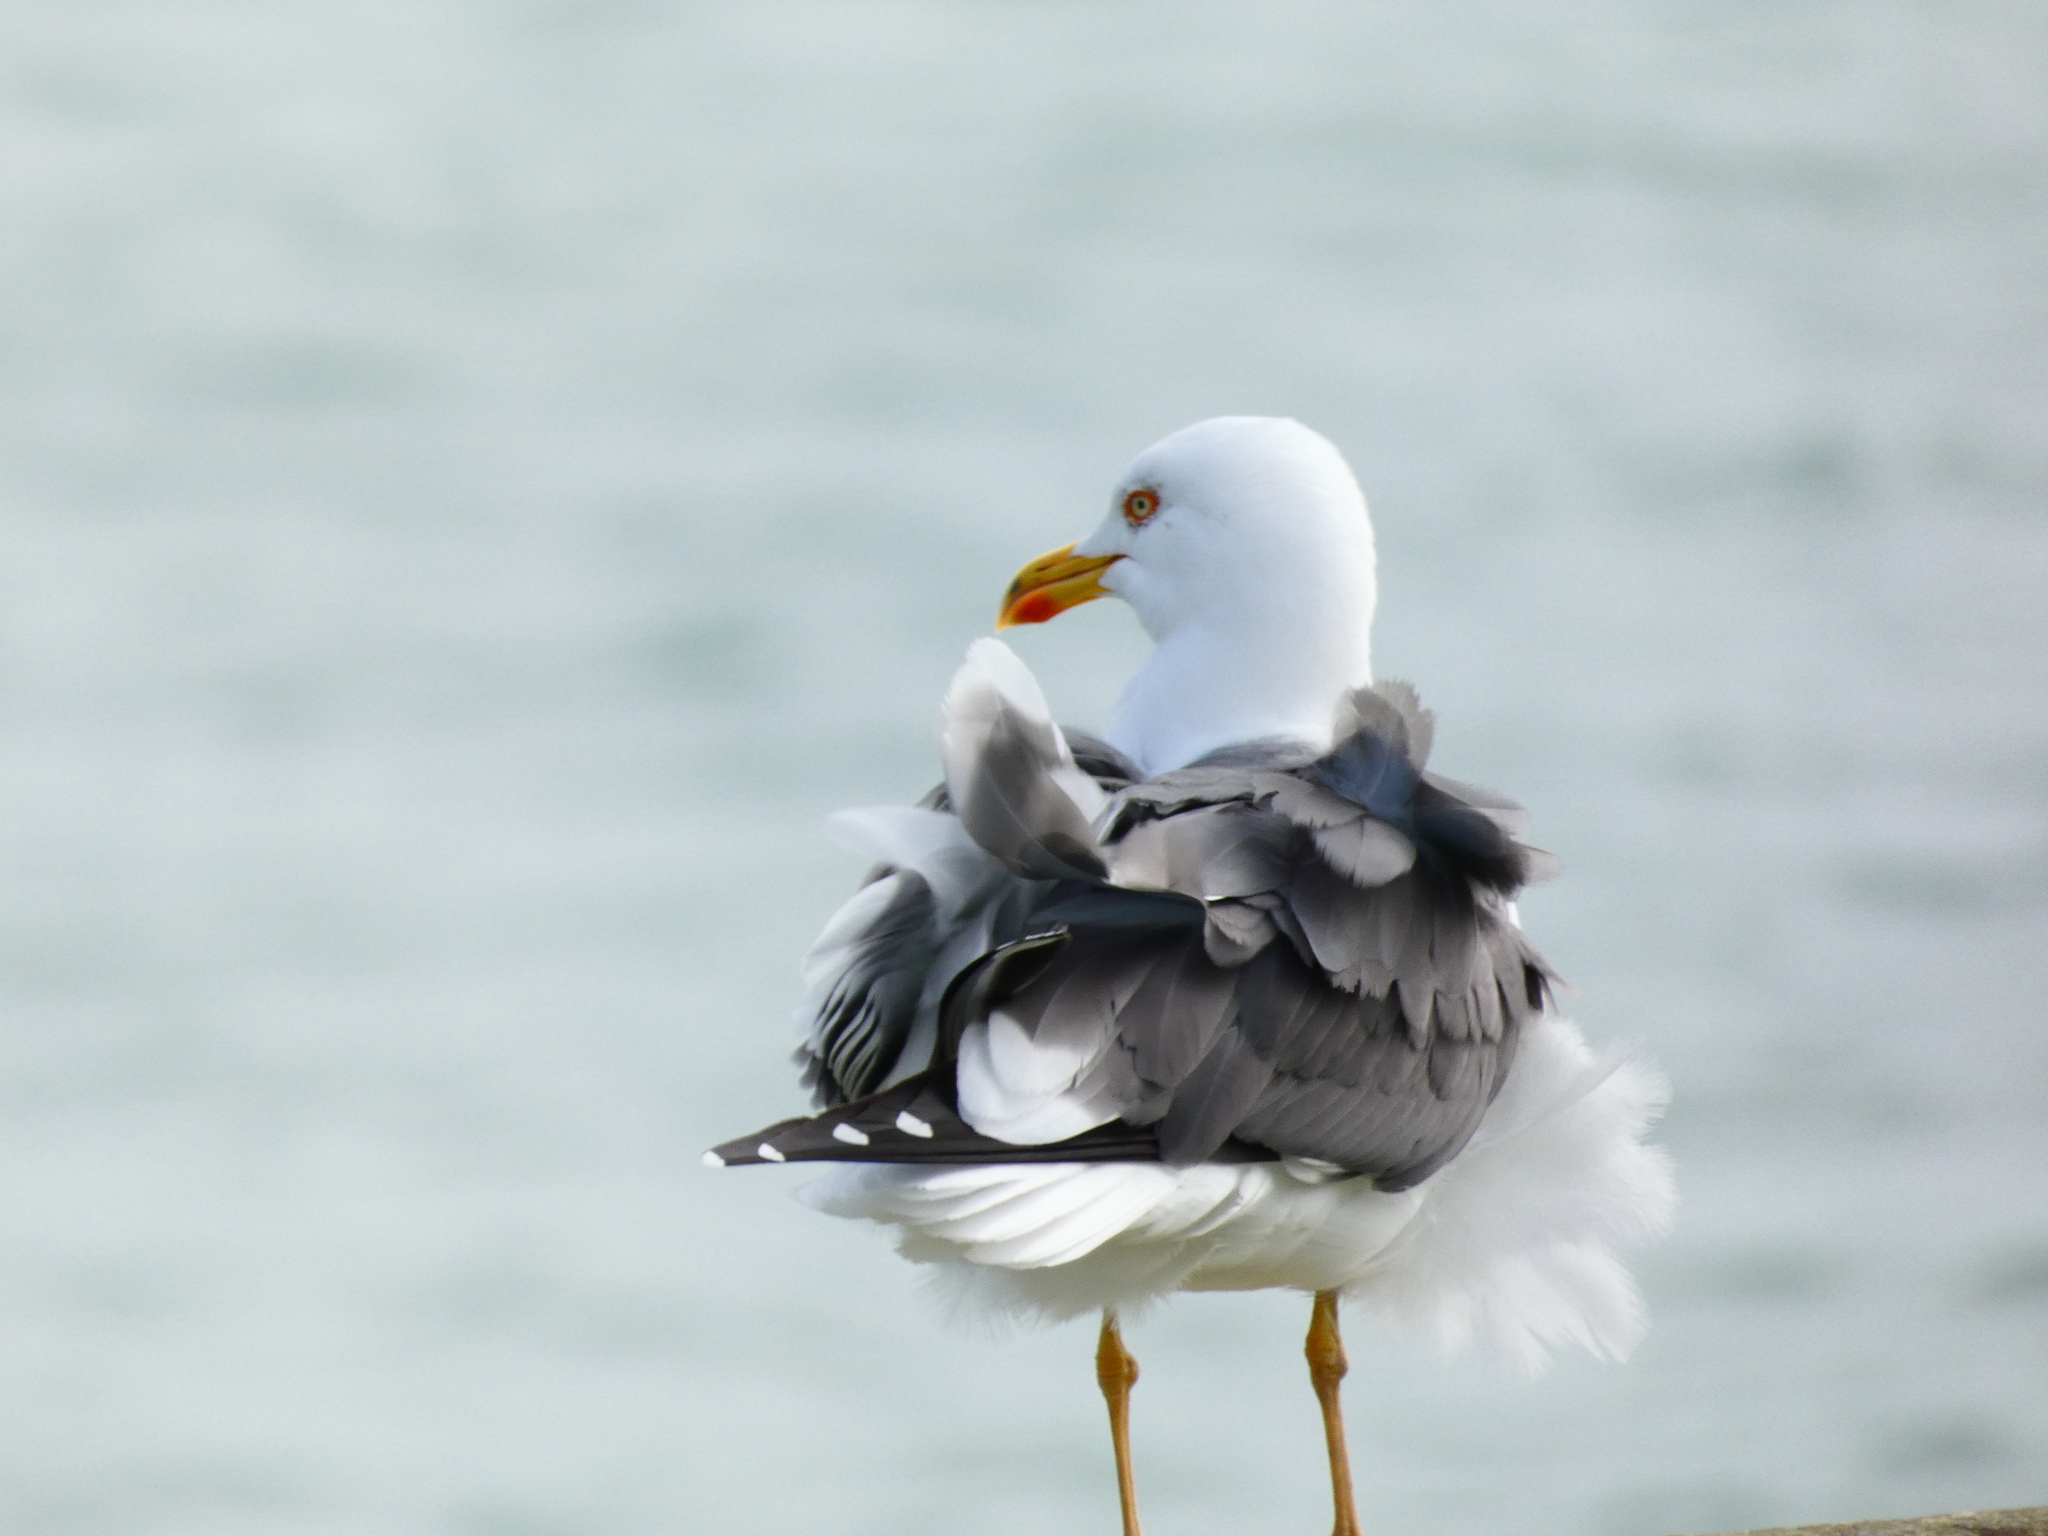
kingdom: Animalia
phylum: Chordata
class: Aves
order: Charadriiformes
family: Laridae
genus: Larus
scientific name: Larus fuscus
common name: Lesser black-backed gull
